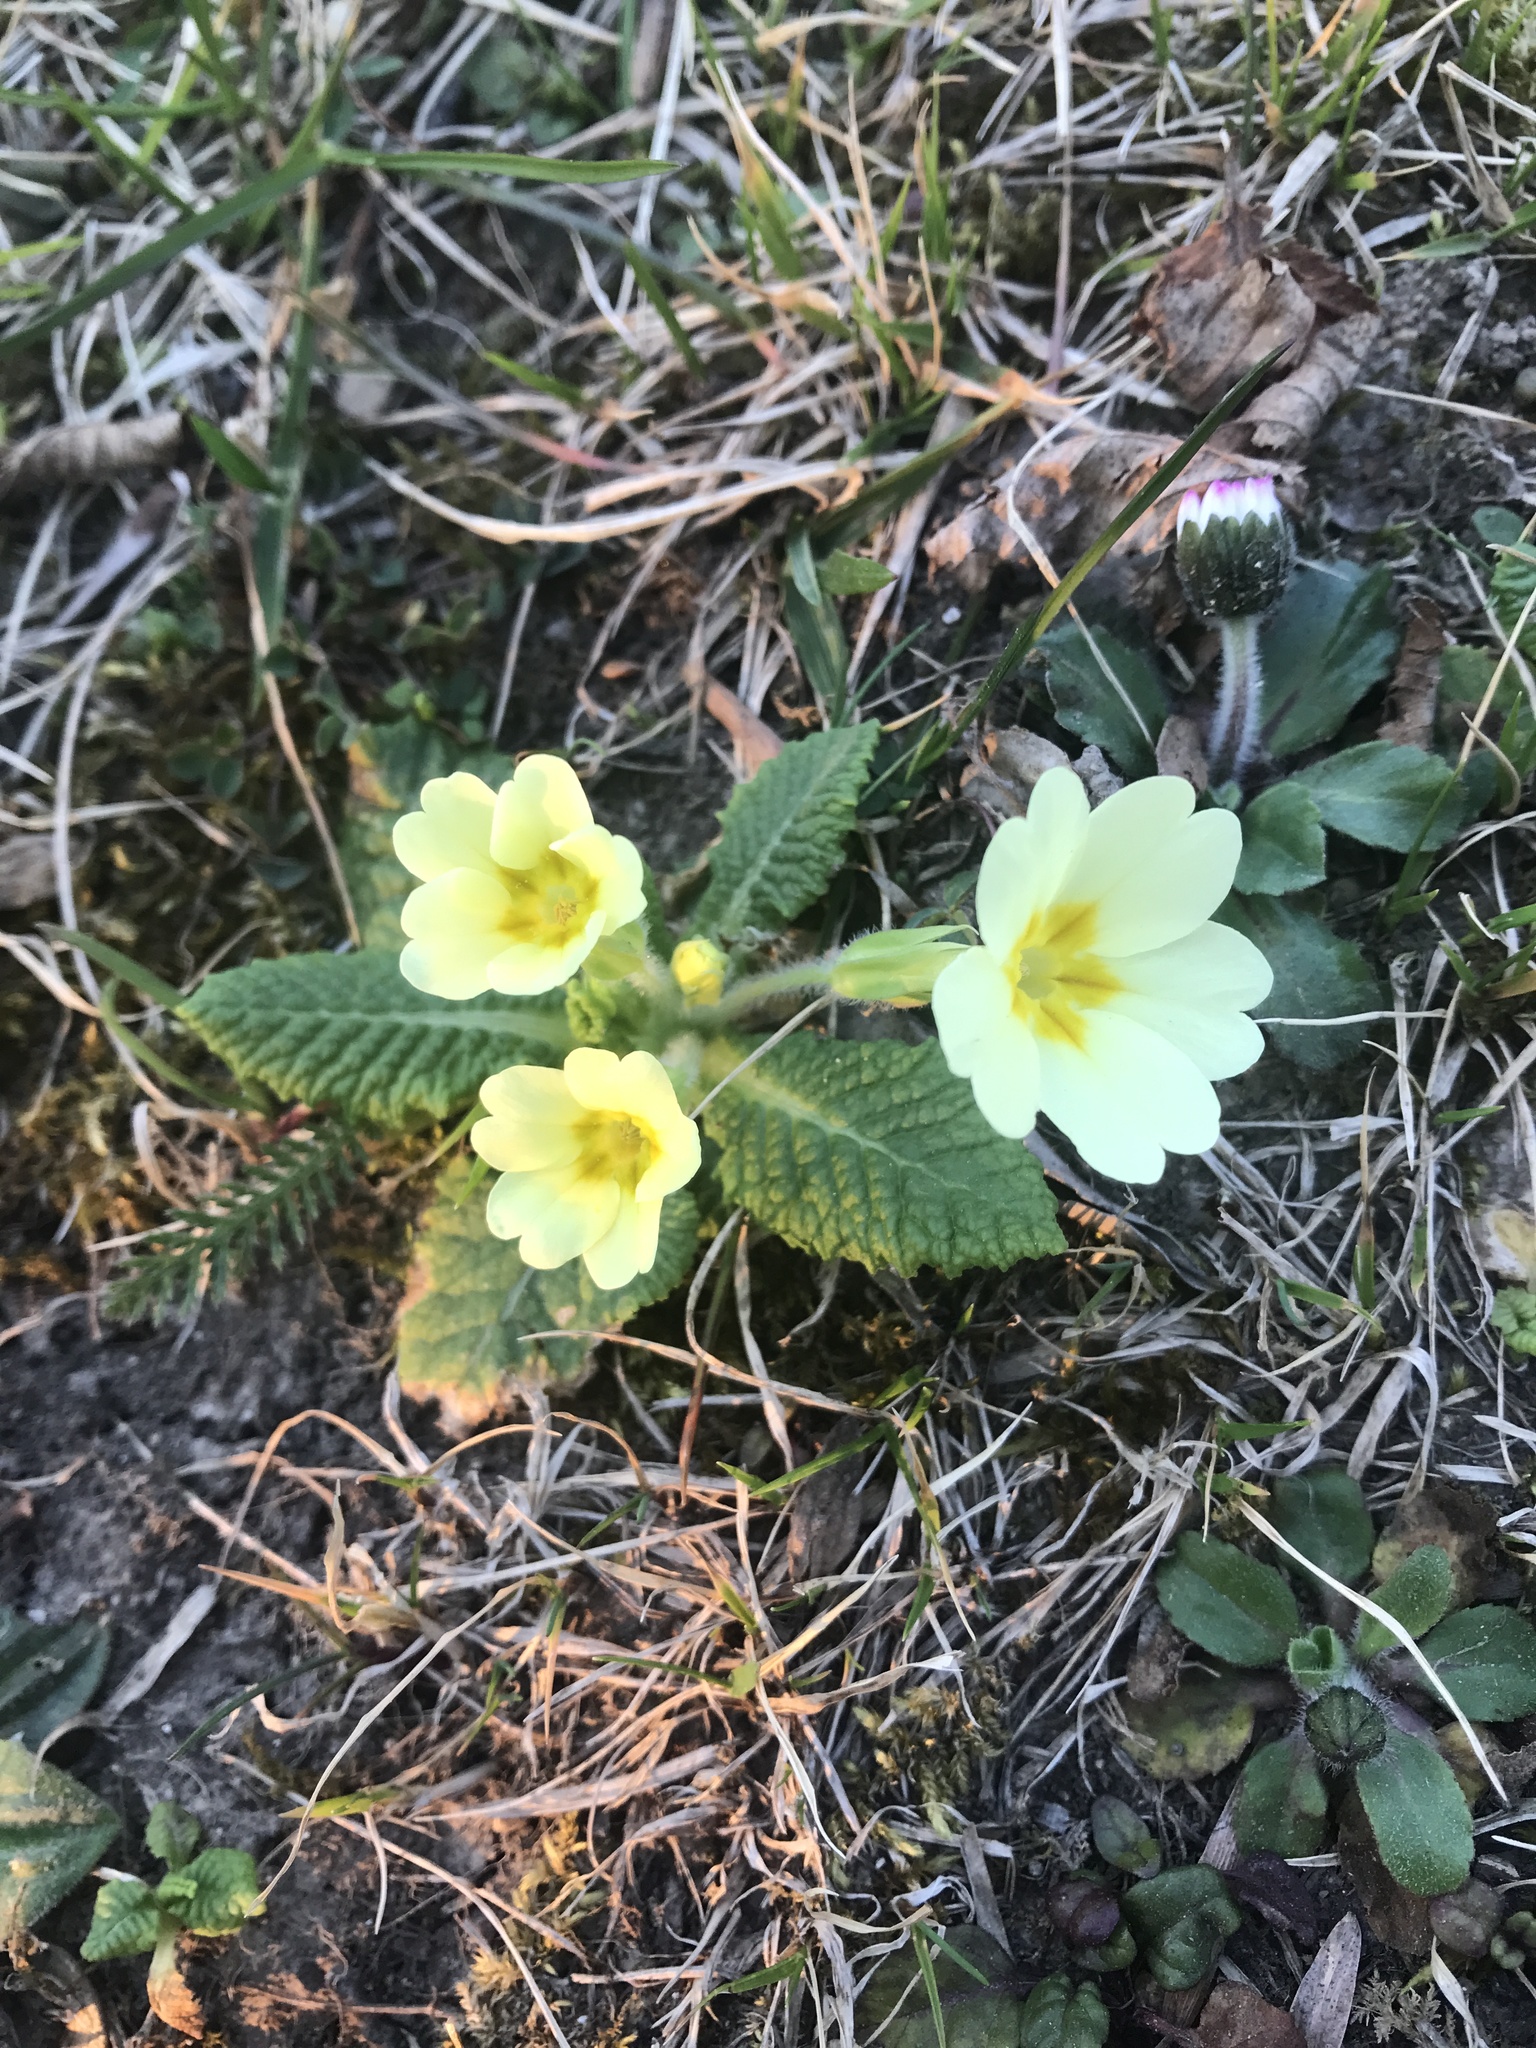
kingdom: Plantae
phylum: Tracheophyta
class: Magnoliopsida
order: Ericales
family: Primulaceae
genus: Primula
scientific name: Primula vulgaris
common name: Primrose
